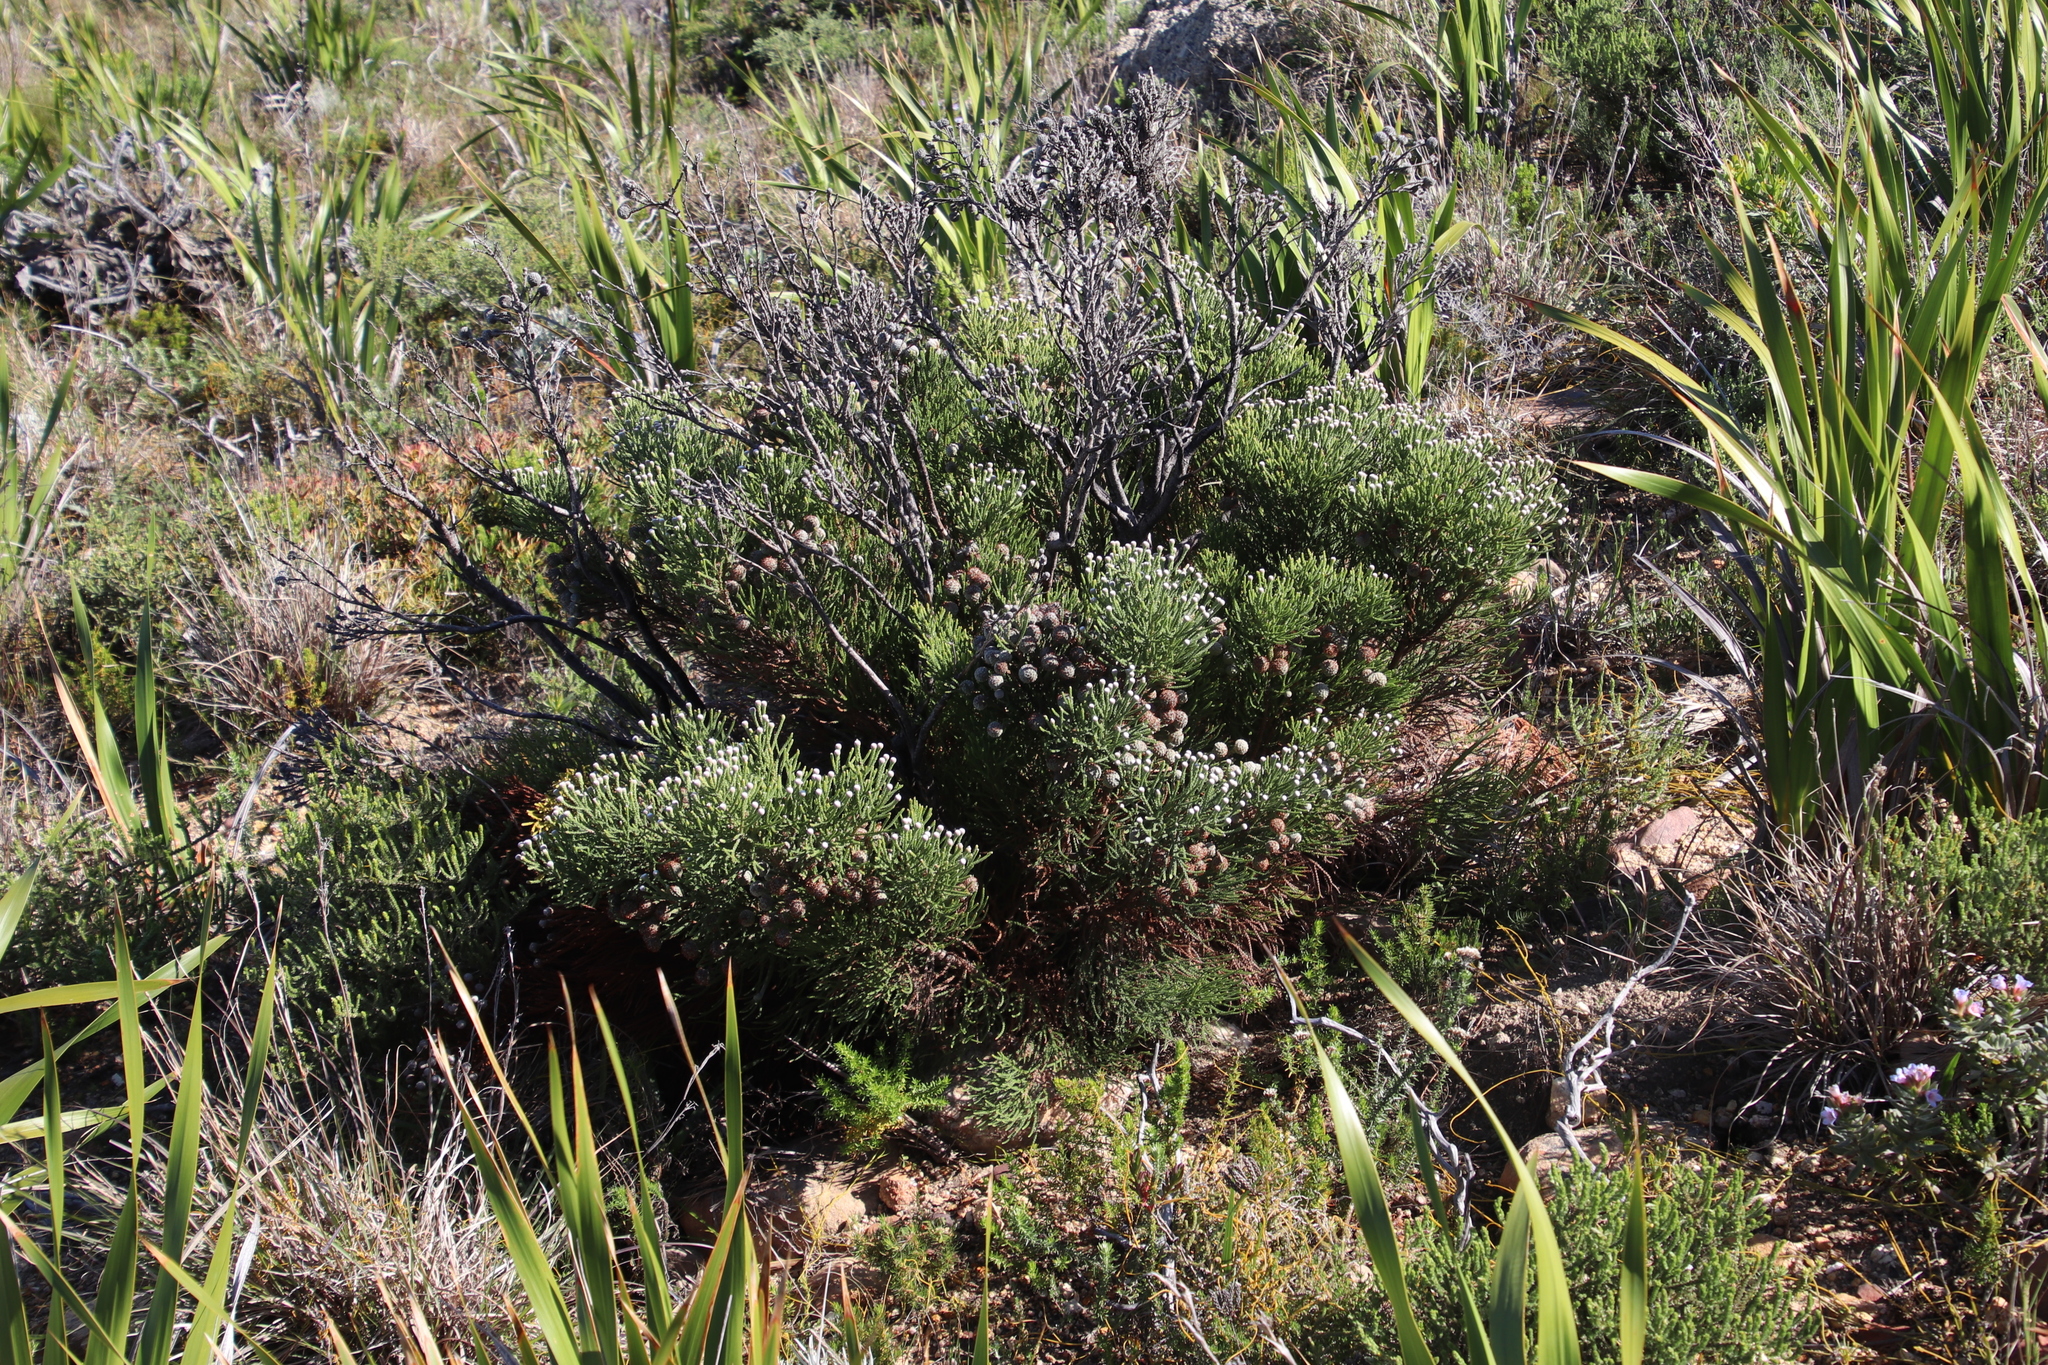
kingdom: Plantae
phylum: Tracheophyta
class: Magnoliopsida
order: Bruniales
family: Bruniaceae
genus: Brunia
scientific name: Brunia noduliflora
